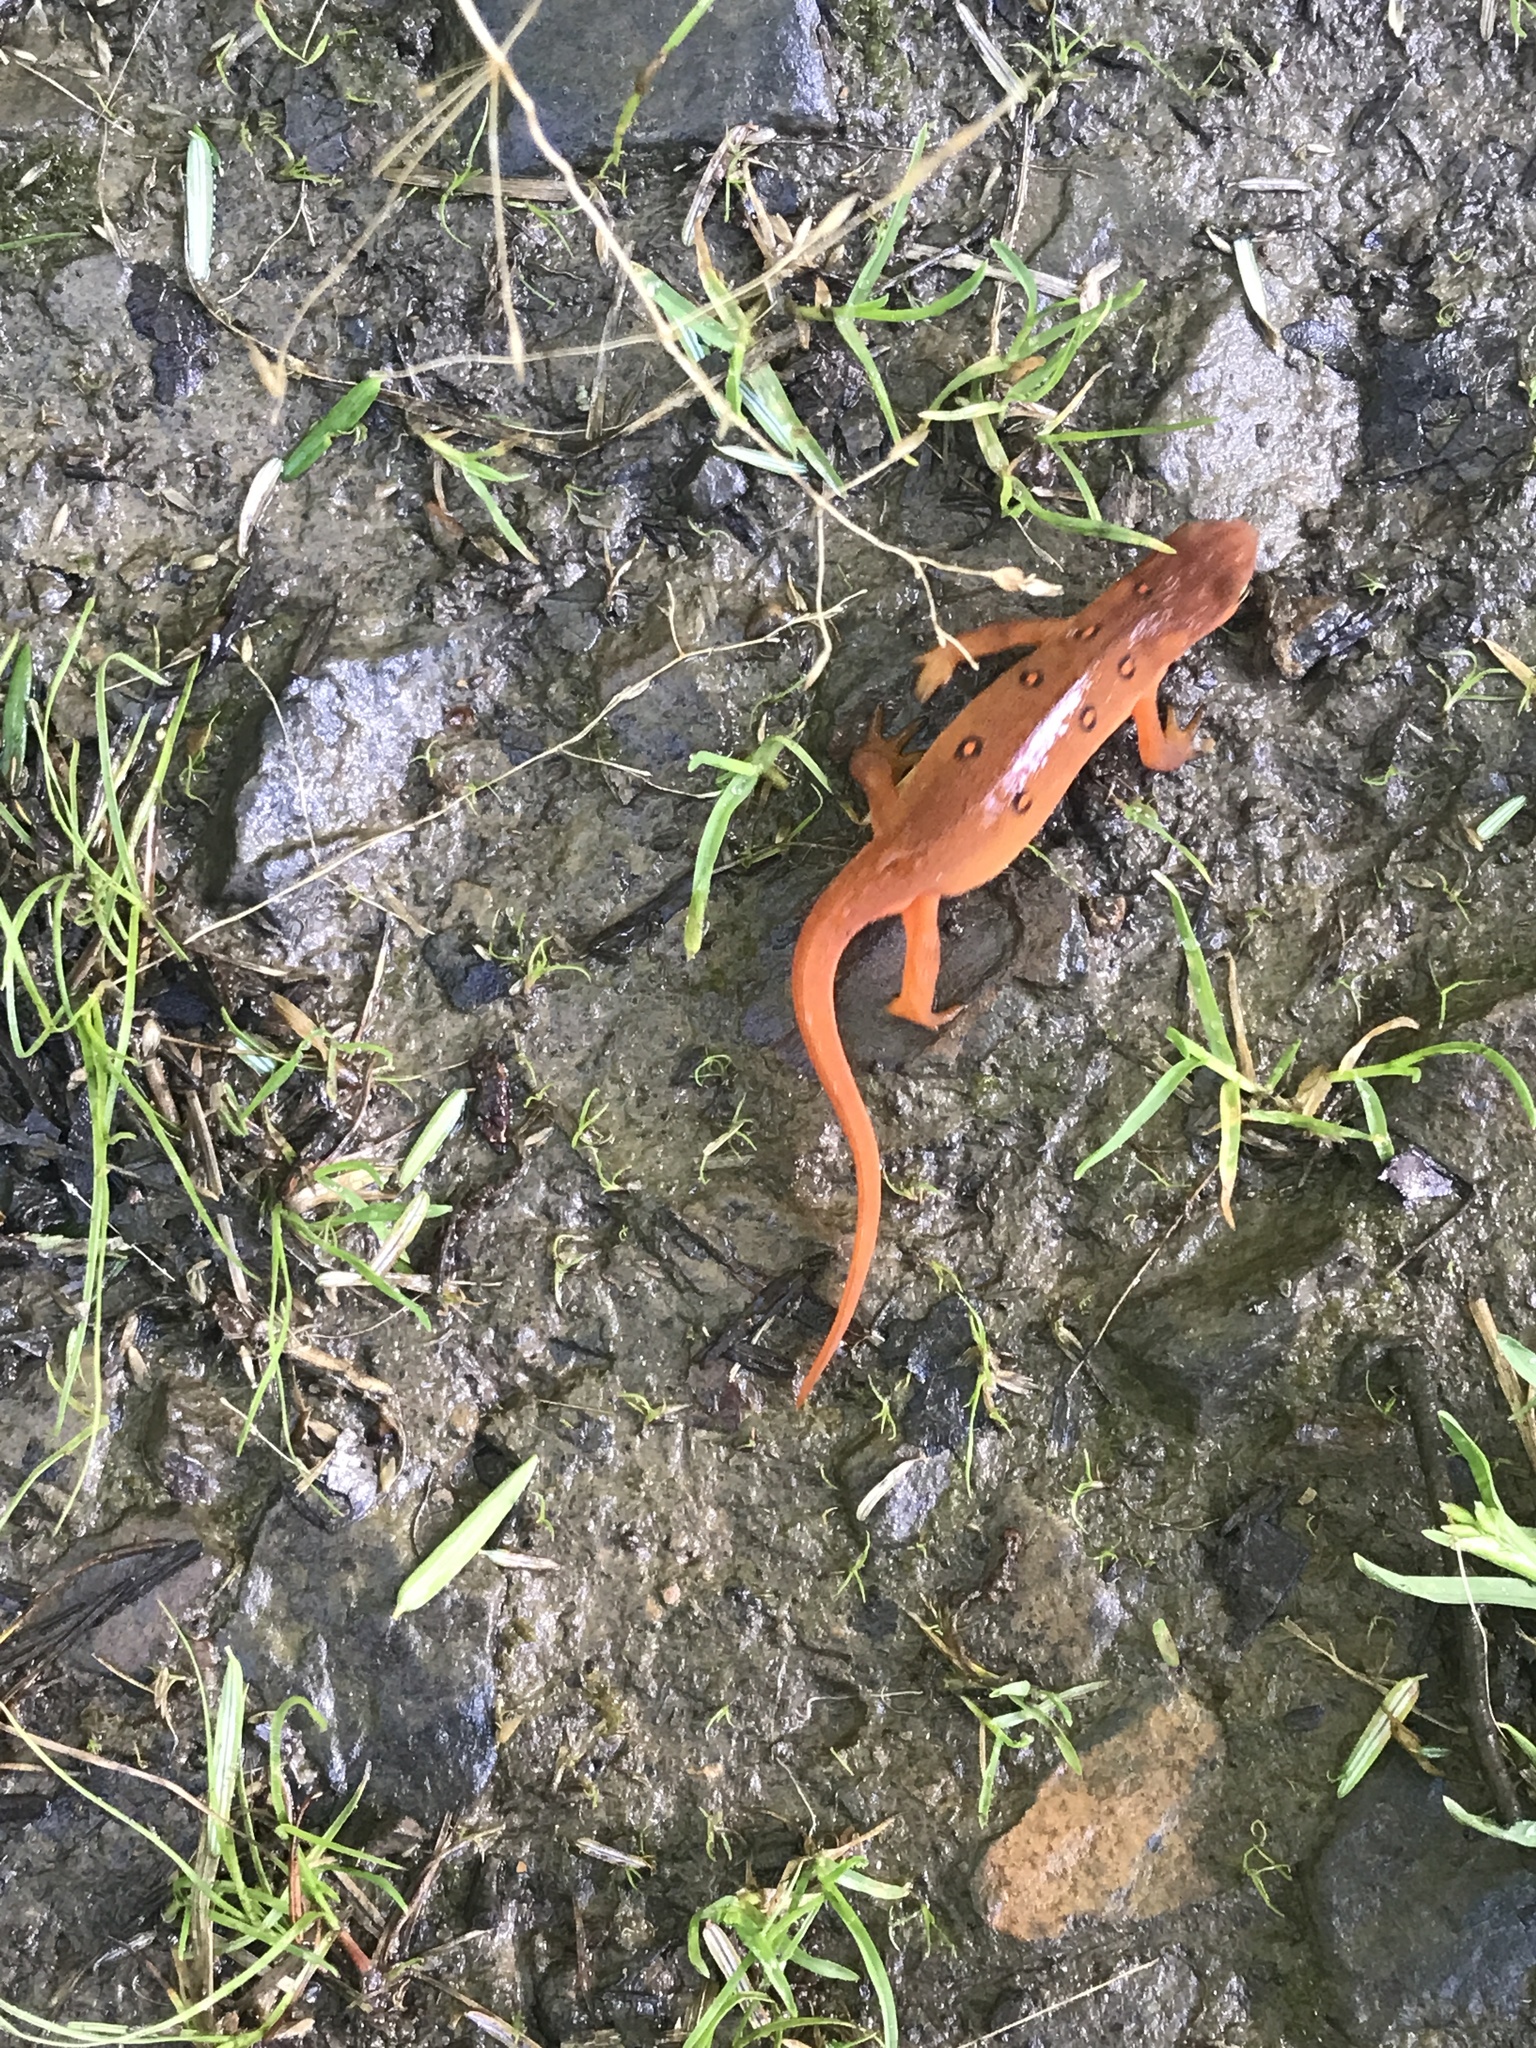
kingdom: Animalia
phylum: Chordata
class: Amphibia
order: Caudata
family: Salamandridae
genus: Notophthalmus
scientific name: Notophthalmus viridescens
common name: Eastern newt
